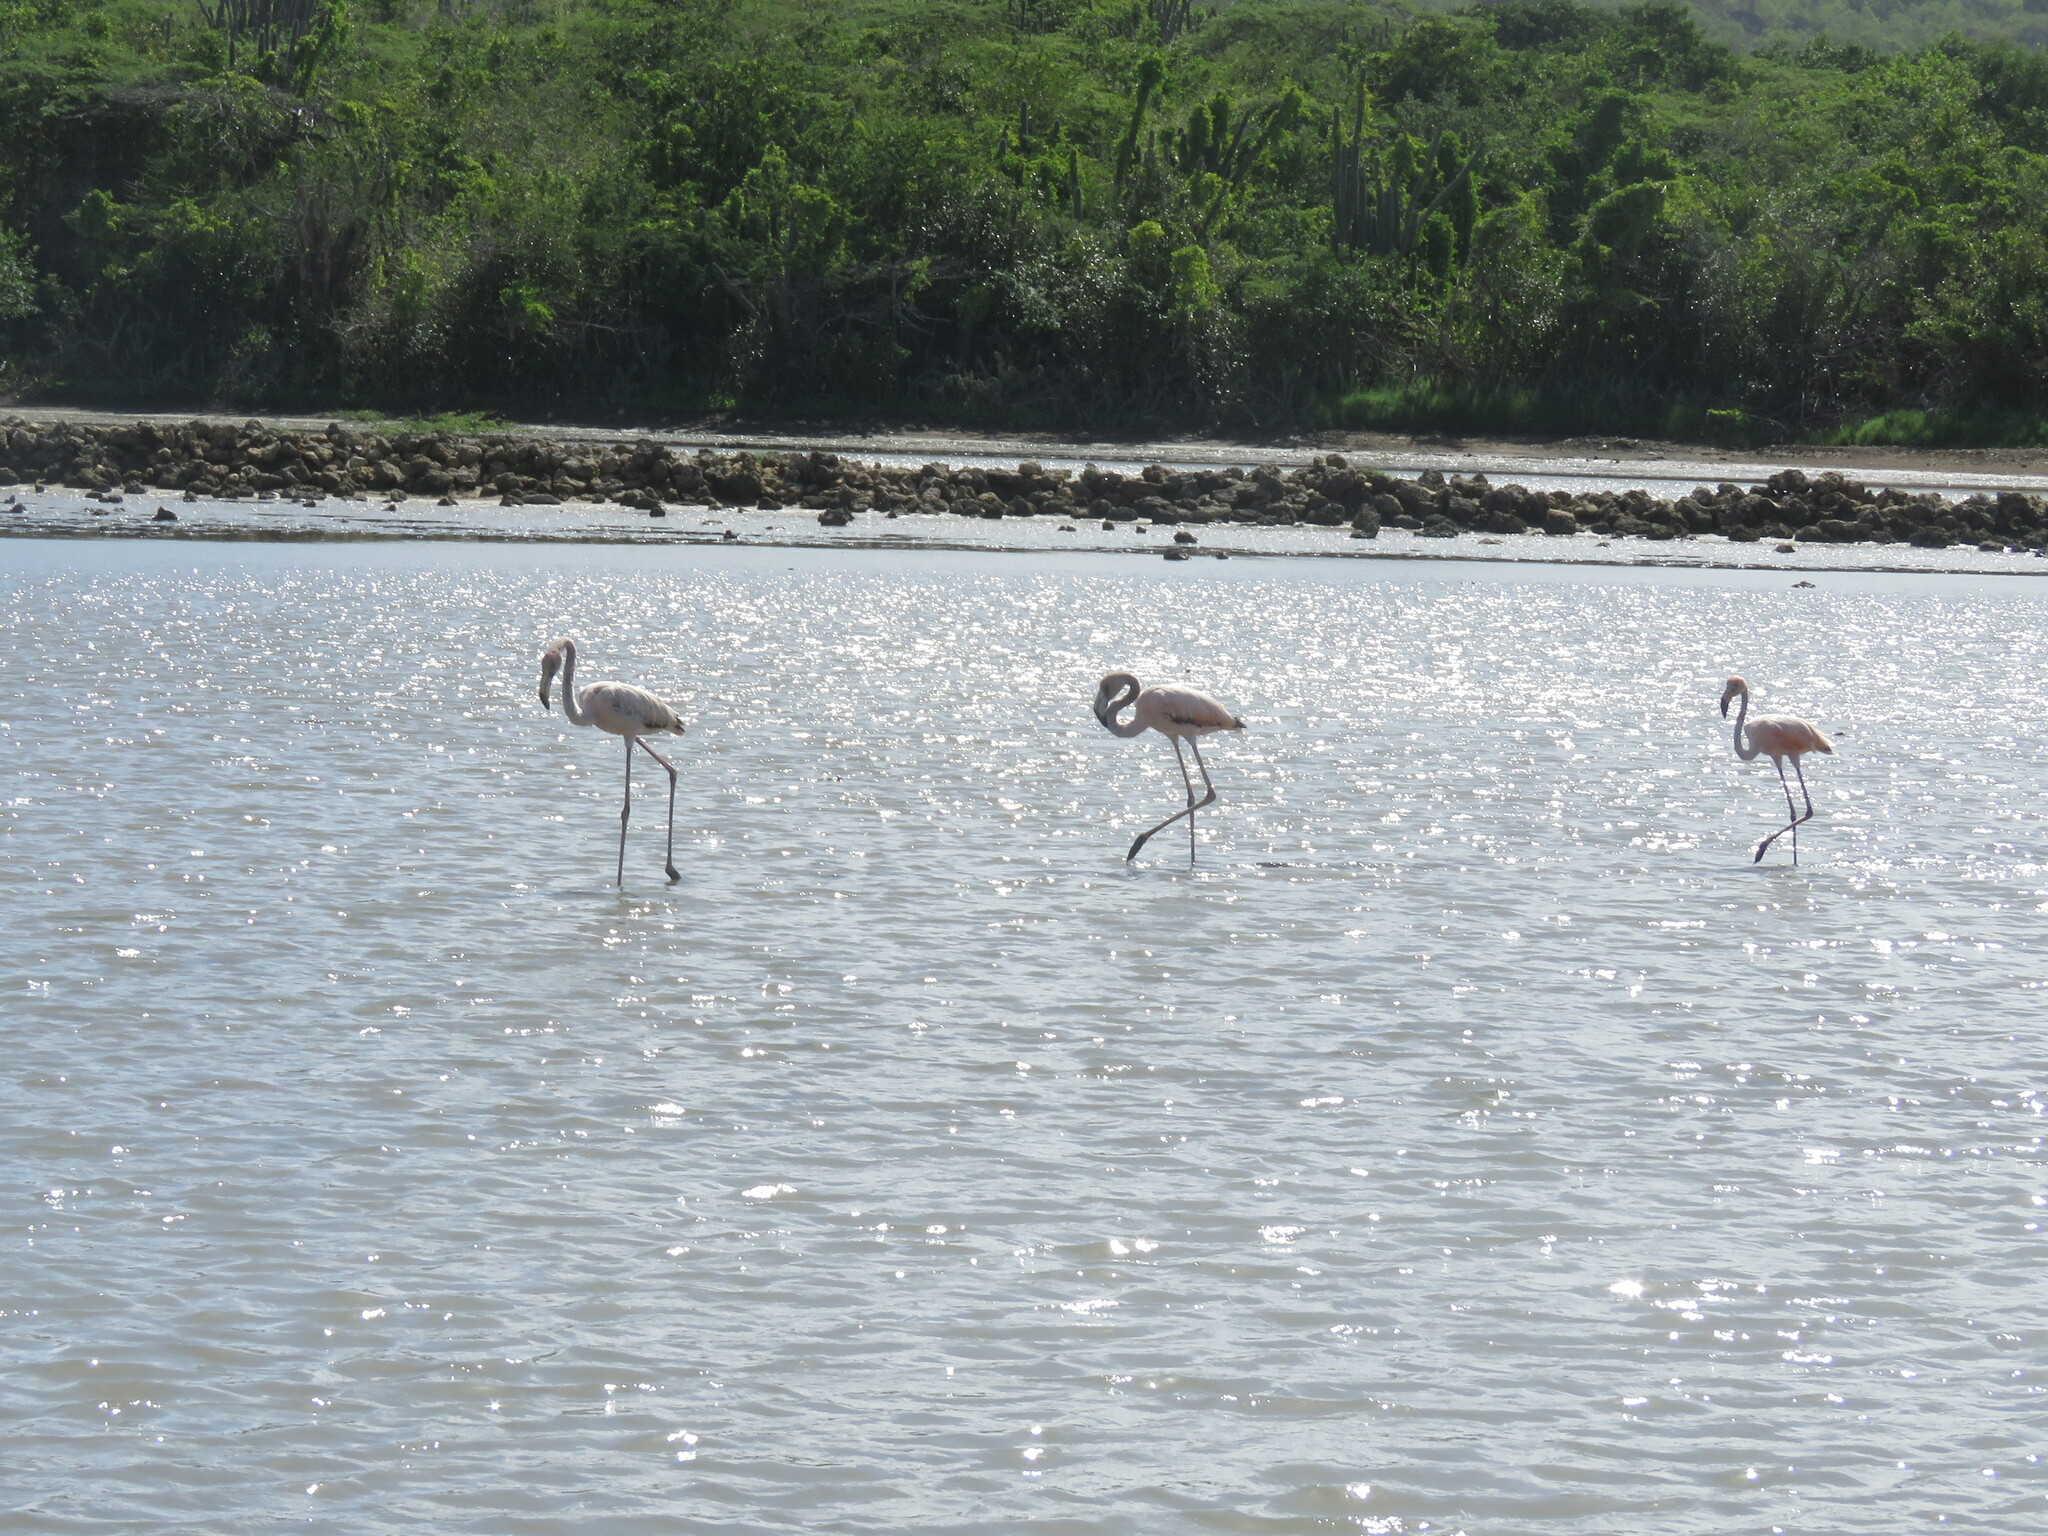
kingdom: Animalia
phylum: Chordata
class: Aves
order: Phoenicopteriformes
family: Phoenicopteridae
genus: Phoenicopterus
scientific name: Phoenicopterus ruber
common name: American flamingo
